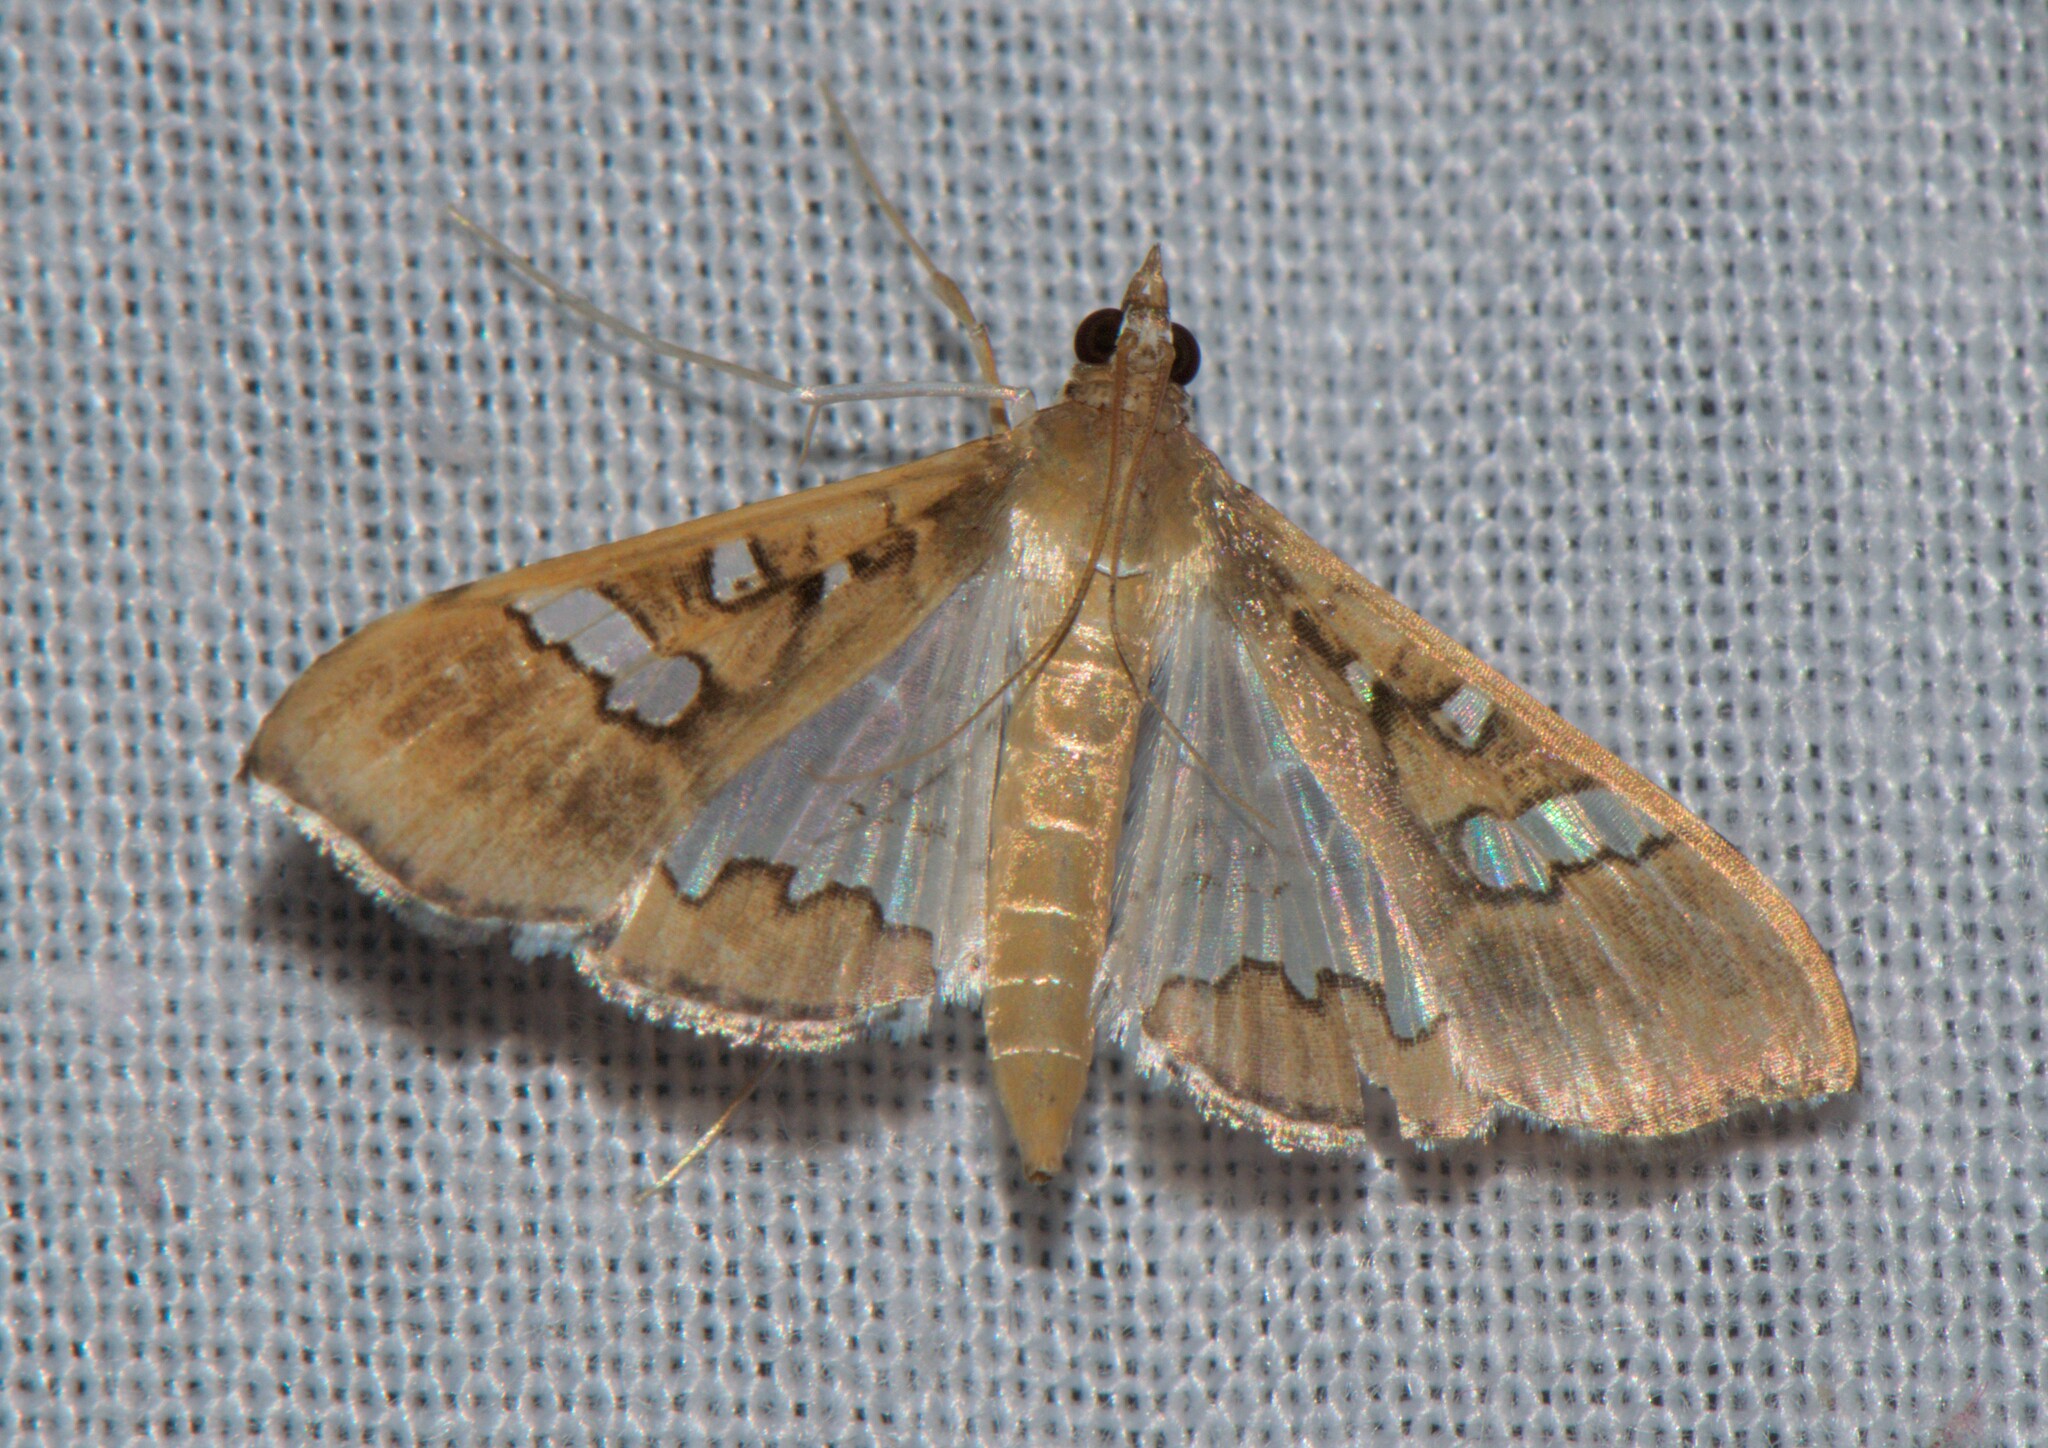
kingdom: Animalia
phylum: Arthropoda
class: Insecta
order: Lepidoptera
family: Crambidae
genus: Maruca
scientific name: Maruca vitrata
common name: Maruca pod borer
